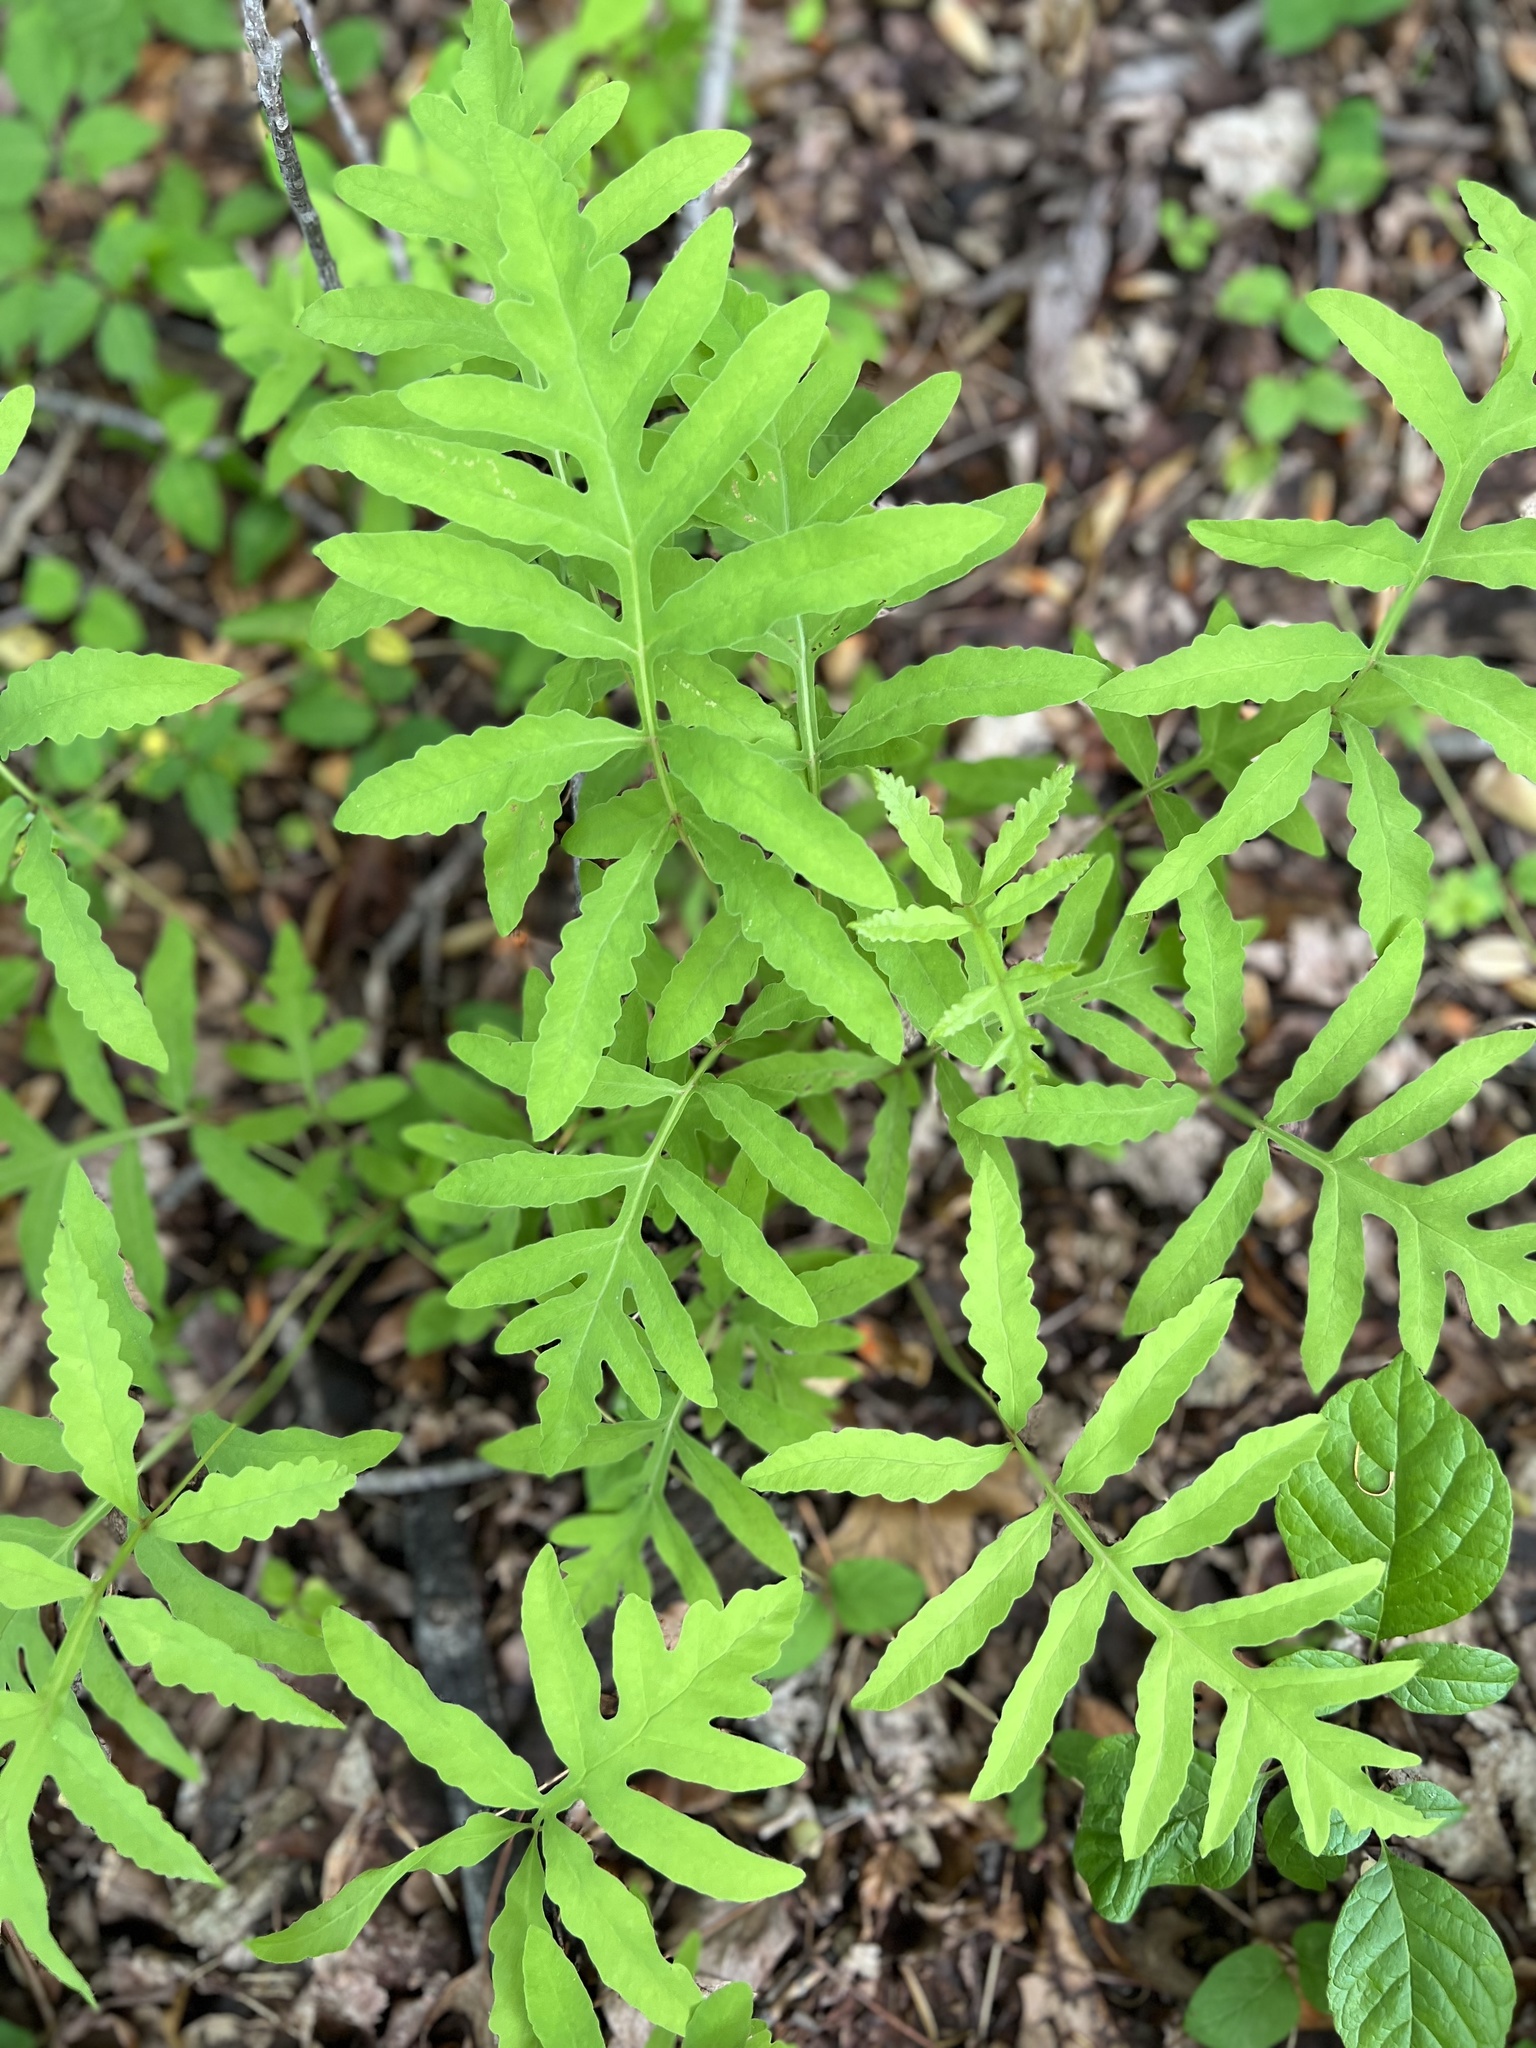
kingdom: Plantae
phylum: Tracheophyta
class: Polypodiopsida
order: Polypodiales
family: Onocleaceae
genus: Onoclea
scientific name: Onoclea sensibilis
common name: Sensitive fern
